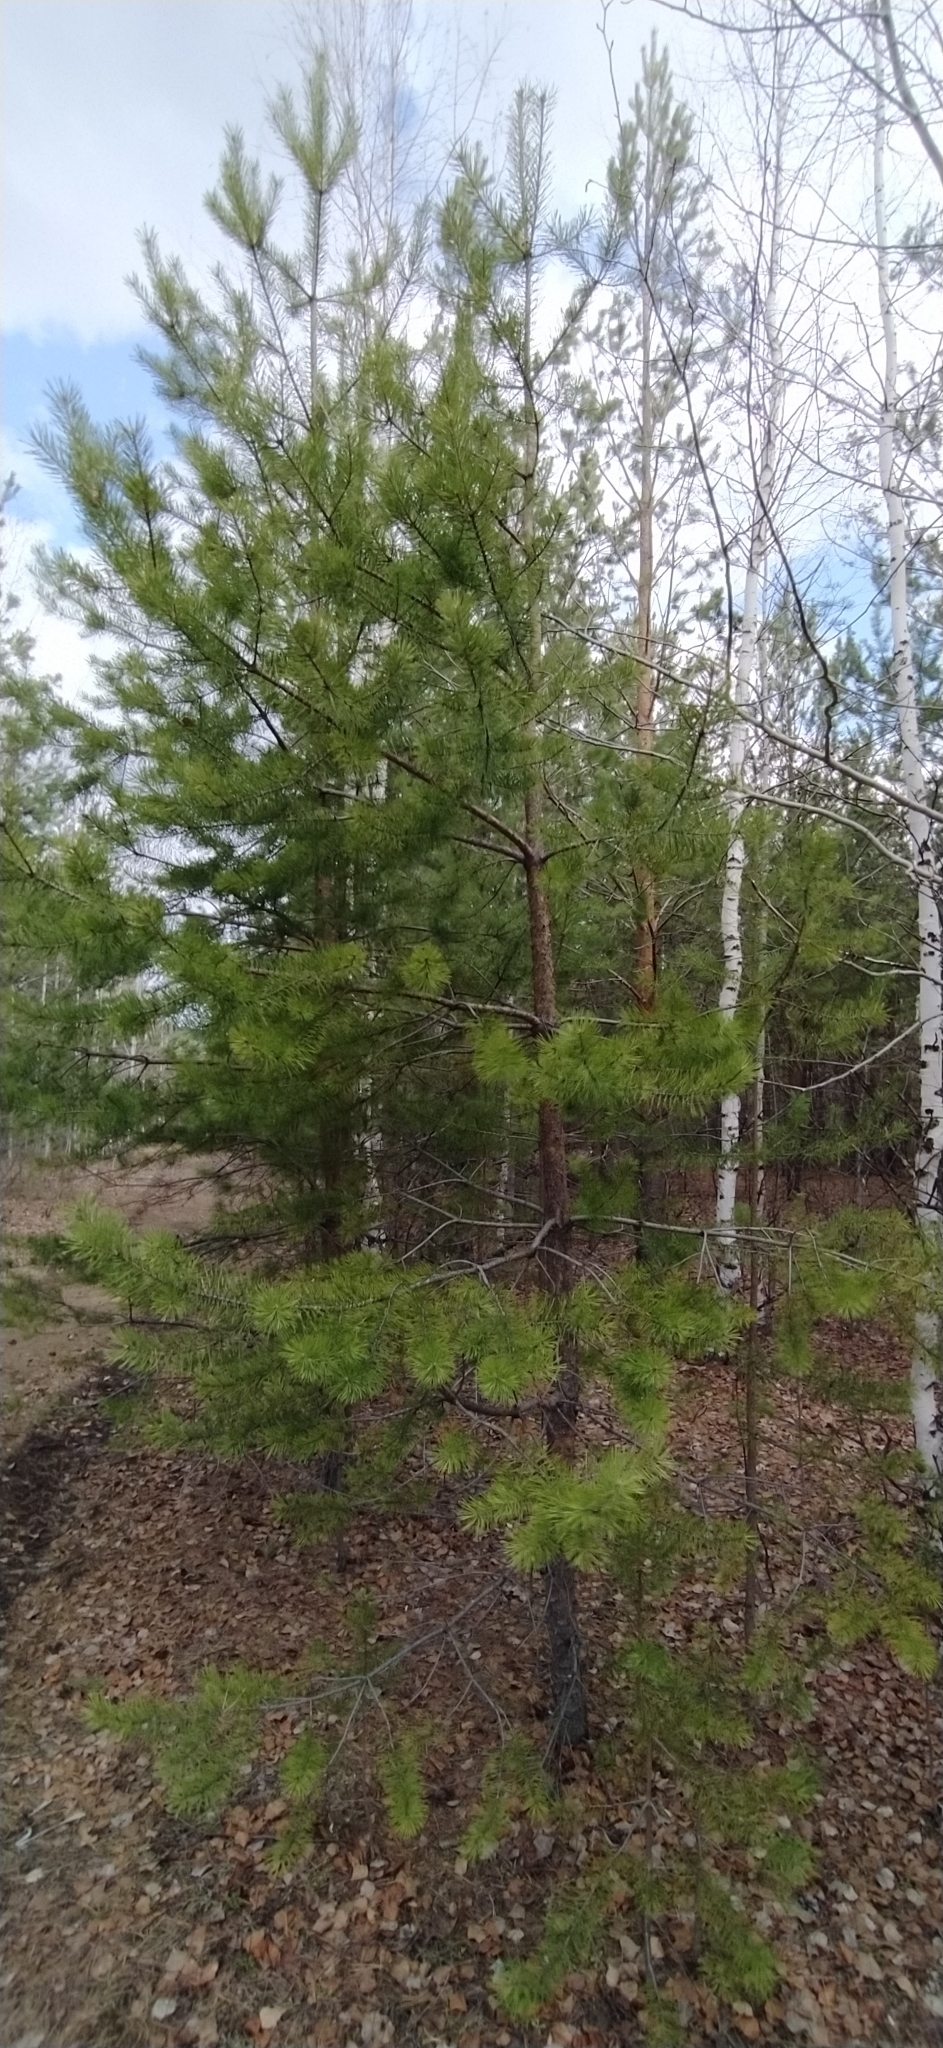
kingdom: Plantae
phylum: Tracheophyta
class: Pinopsida
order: Pinales
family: Pinaceae
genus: Pinus
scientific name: Pinus sylvestris
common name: Scots pine
